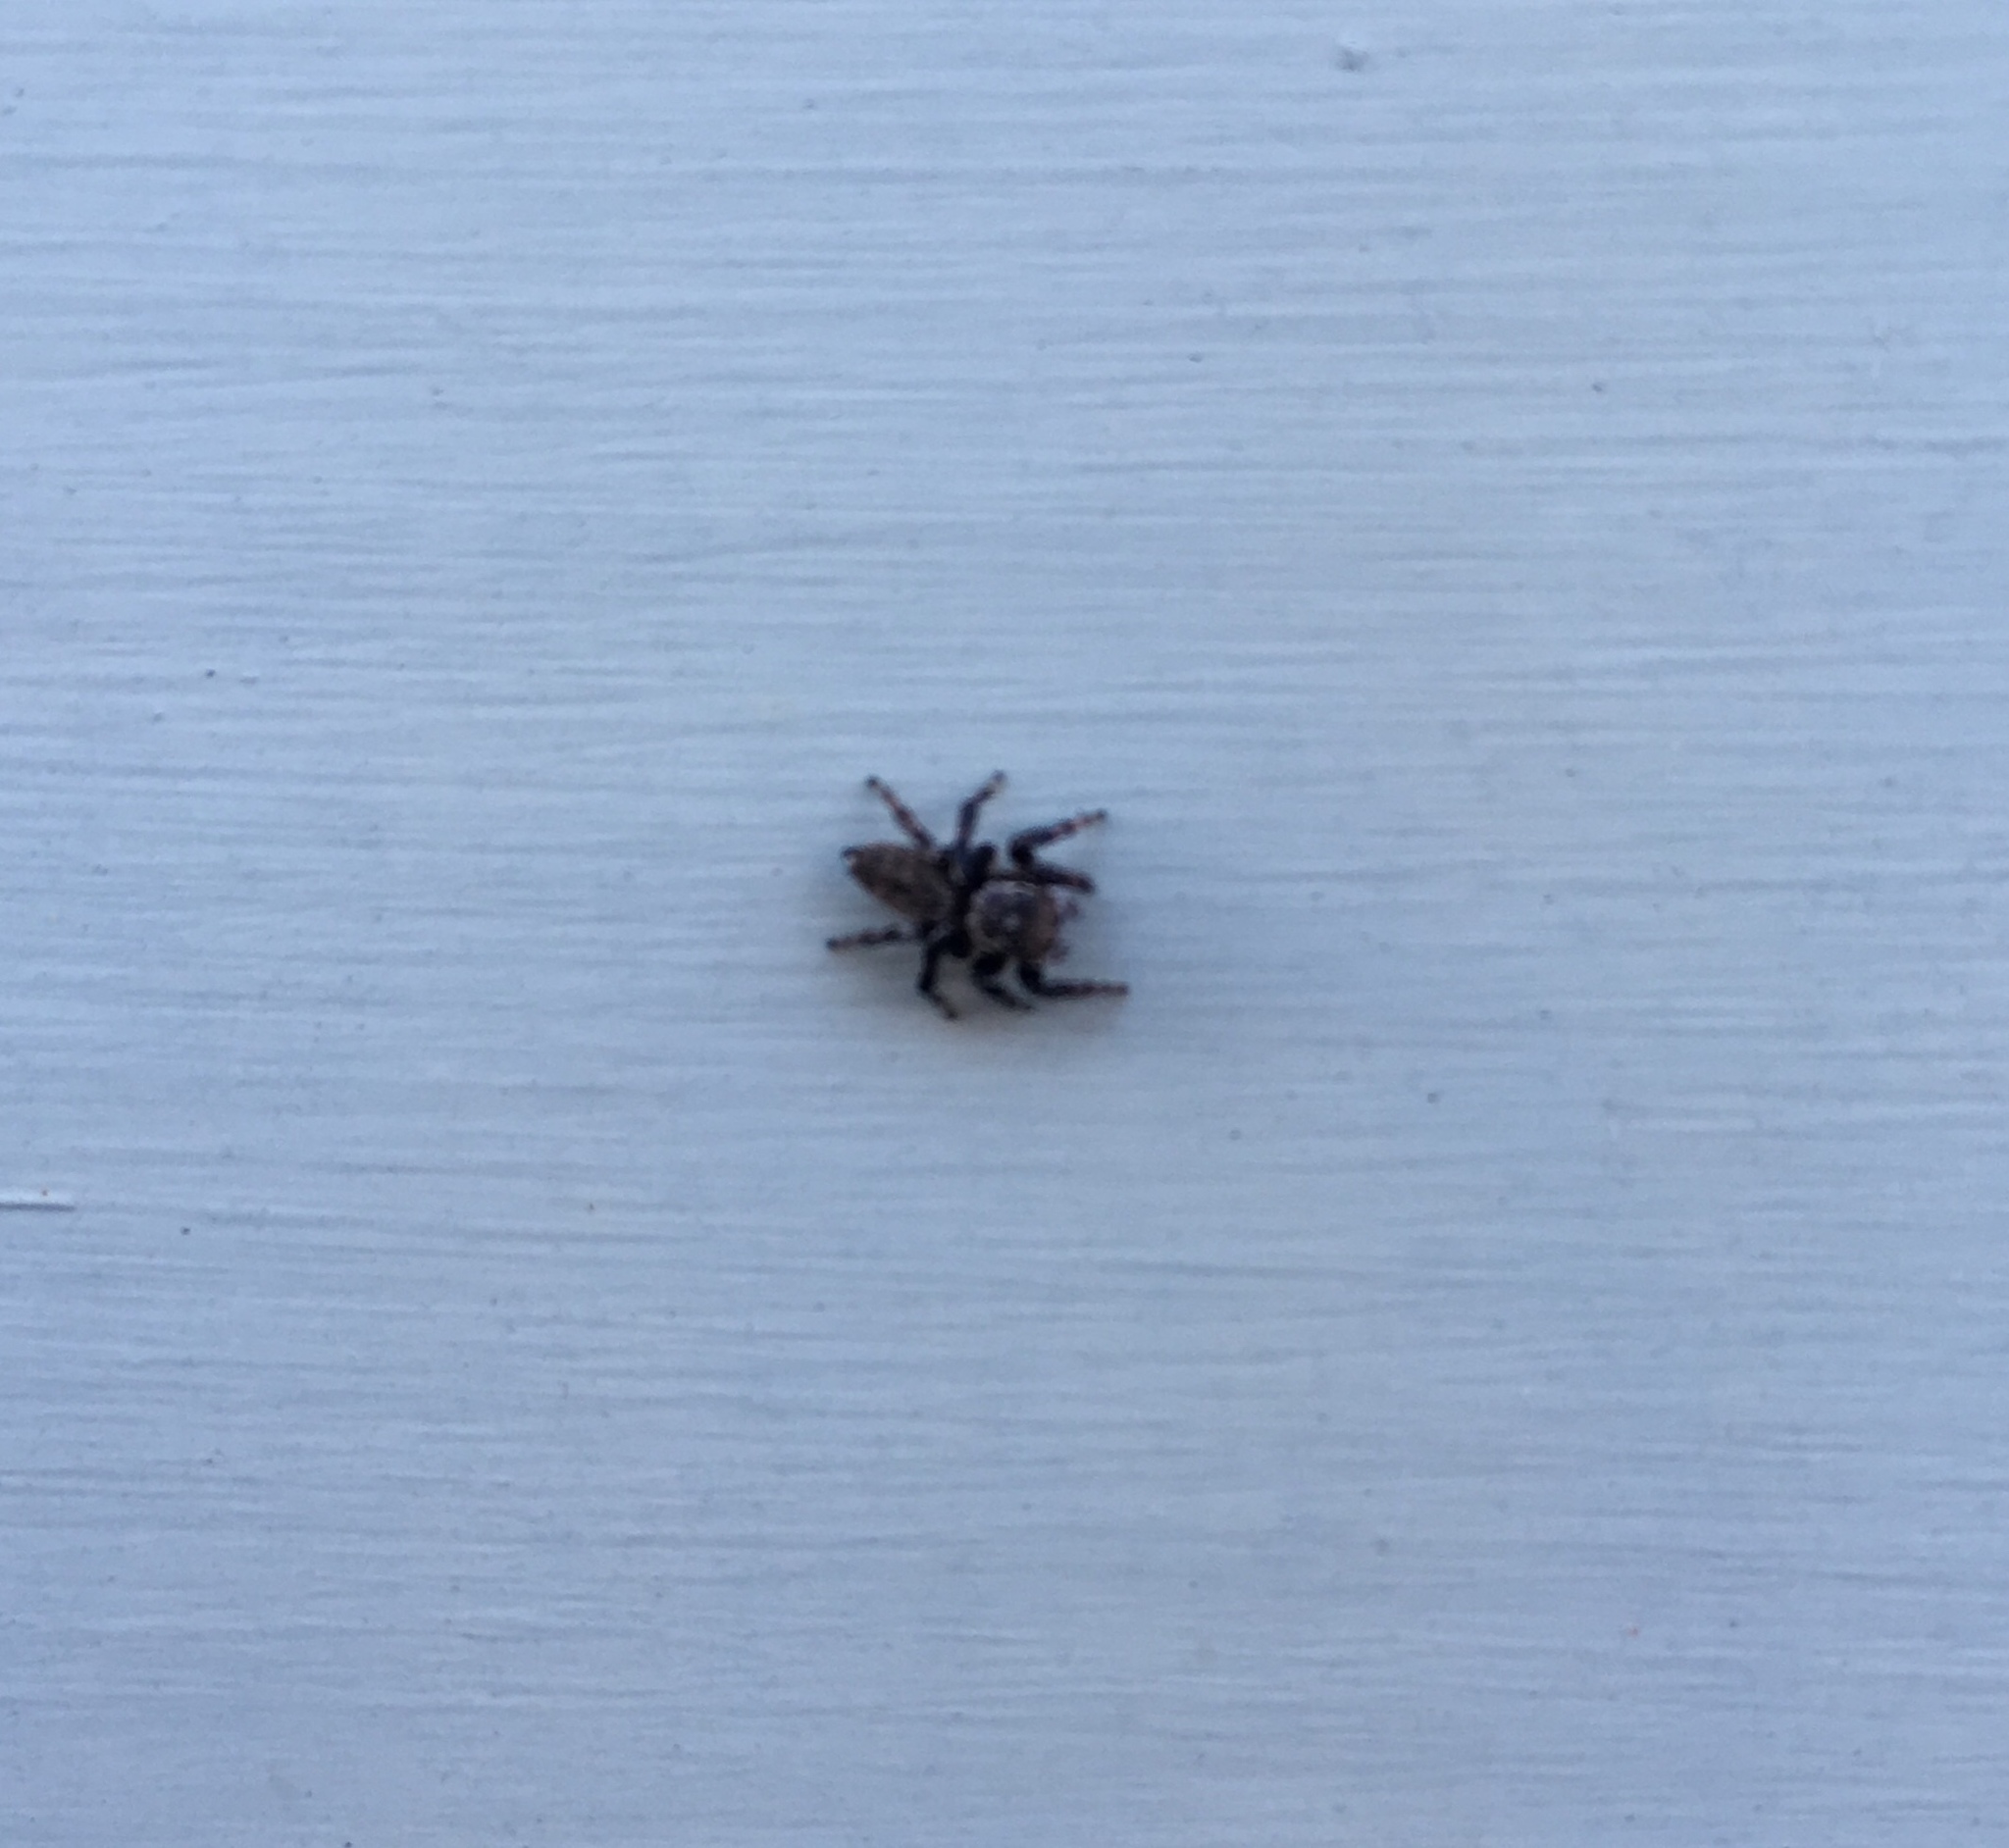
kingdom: Animalia
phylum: Arthropoda
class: Arachnida
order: Araneae
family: Salticidae
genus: Maratus
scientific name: Maratus griseus
